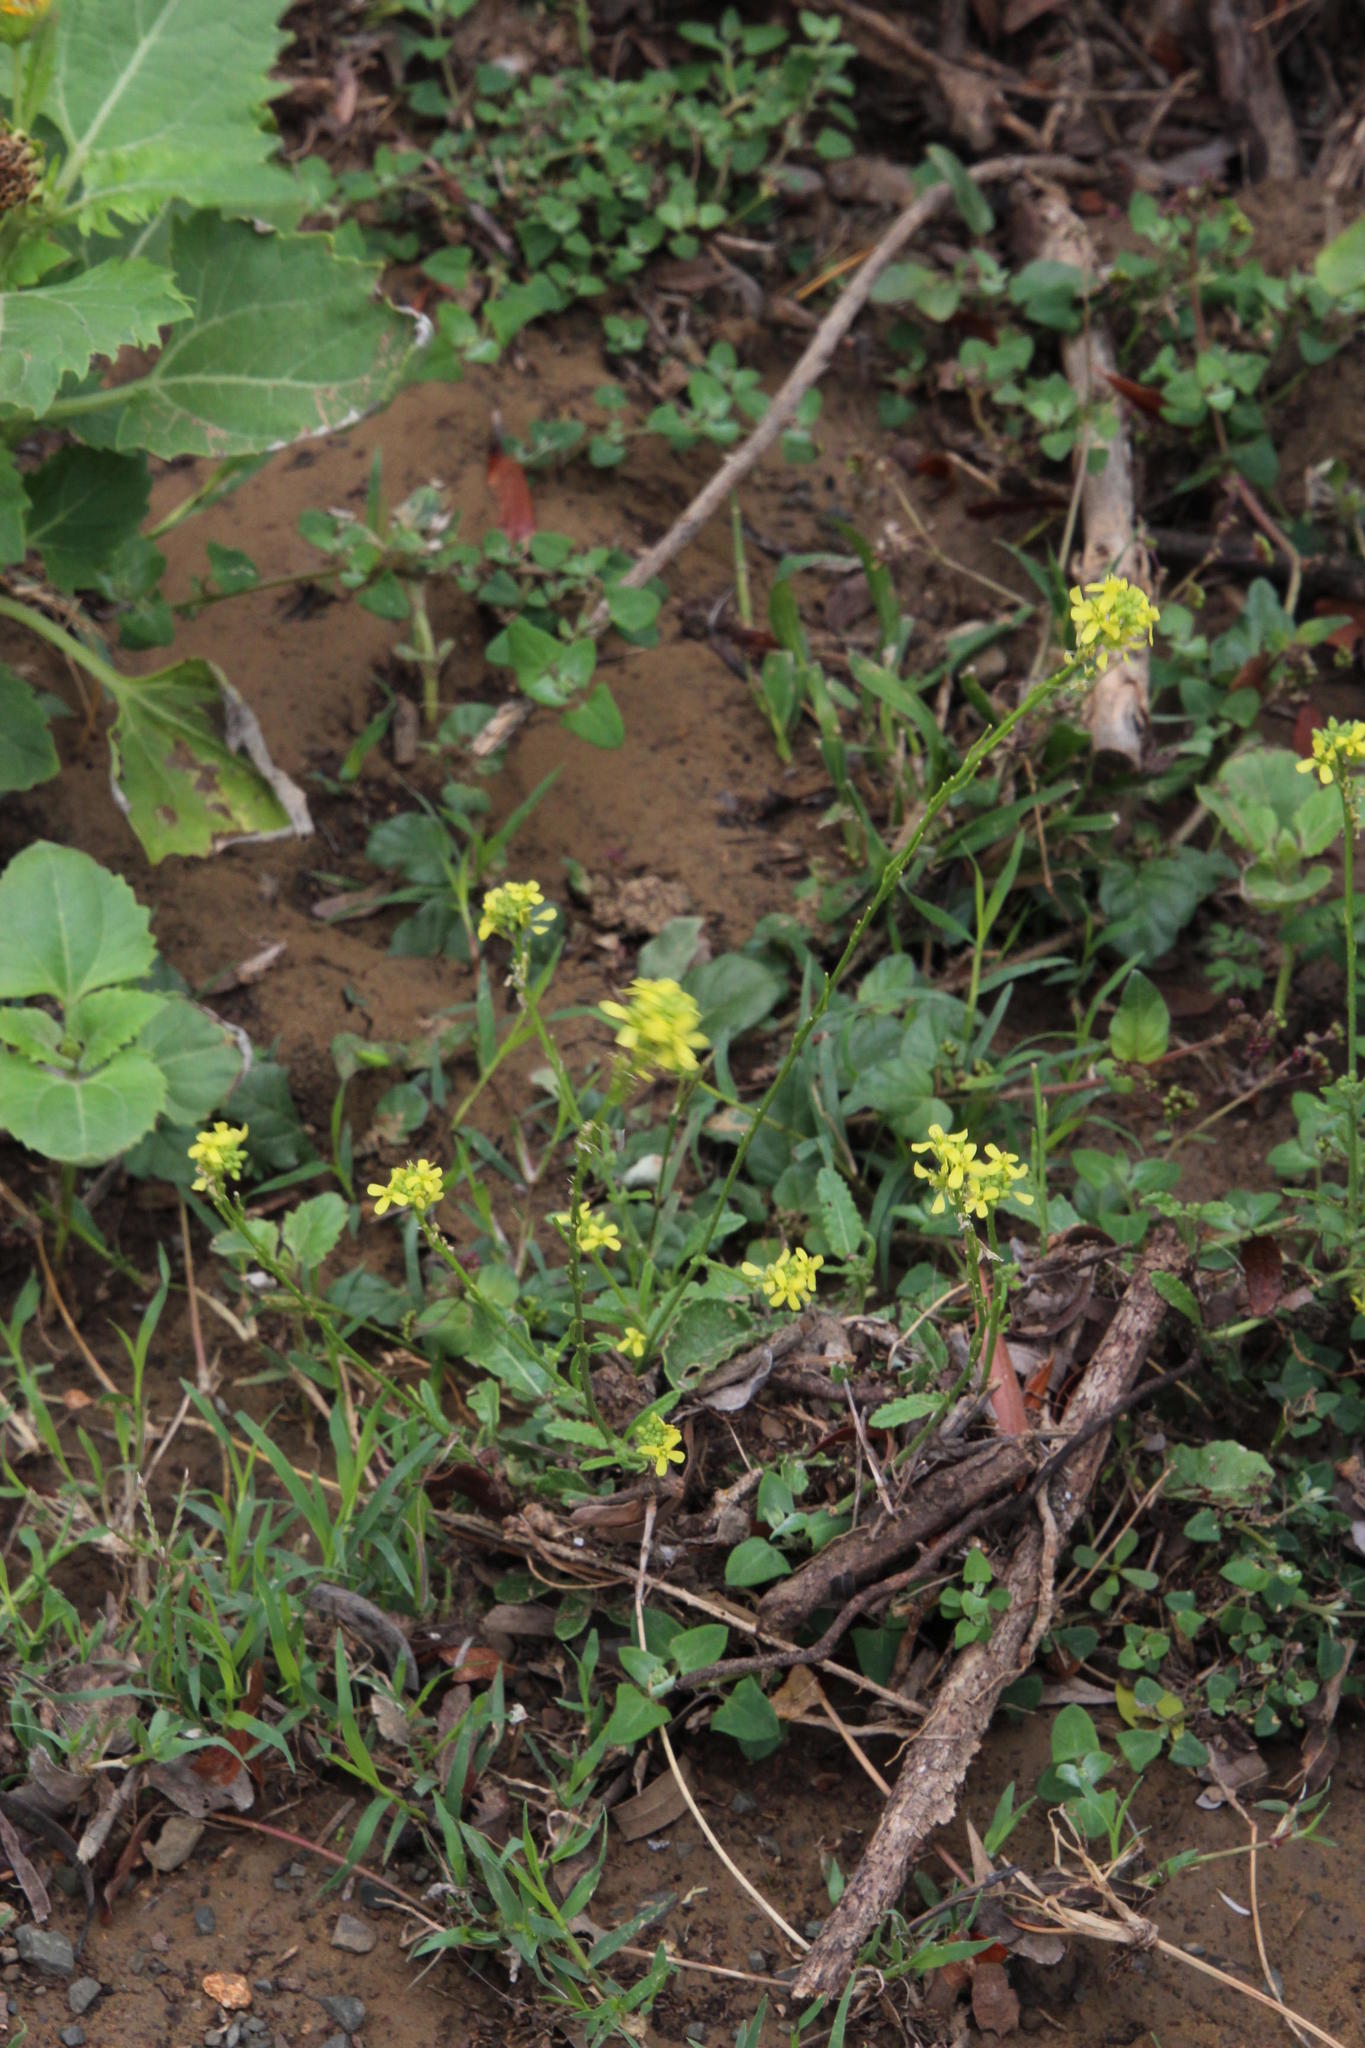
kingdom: Plantae
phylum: Tracheophyta
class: Magnoliopsida
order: Brassicales
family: Brassicaceae
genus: Hirschfeldia
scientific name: Hirschfeldia incana
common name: Hoary mustard
